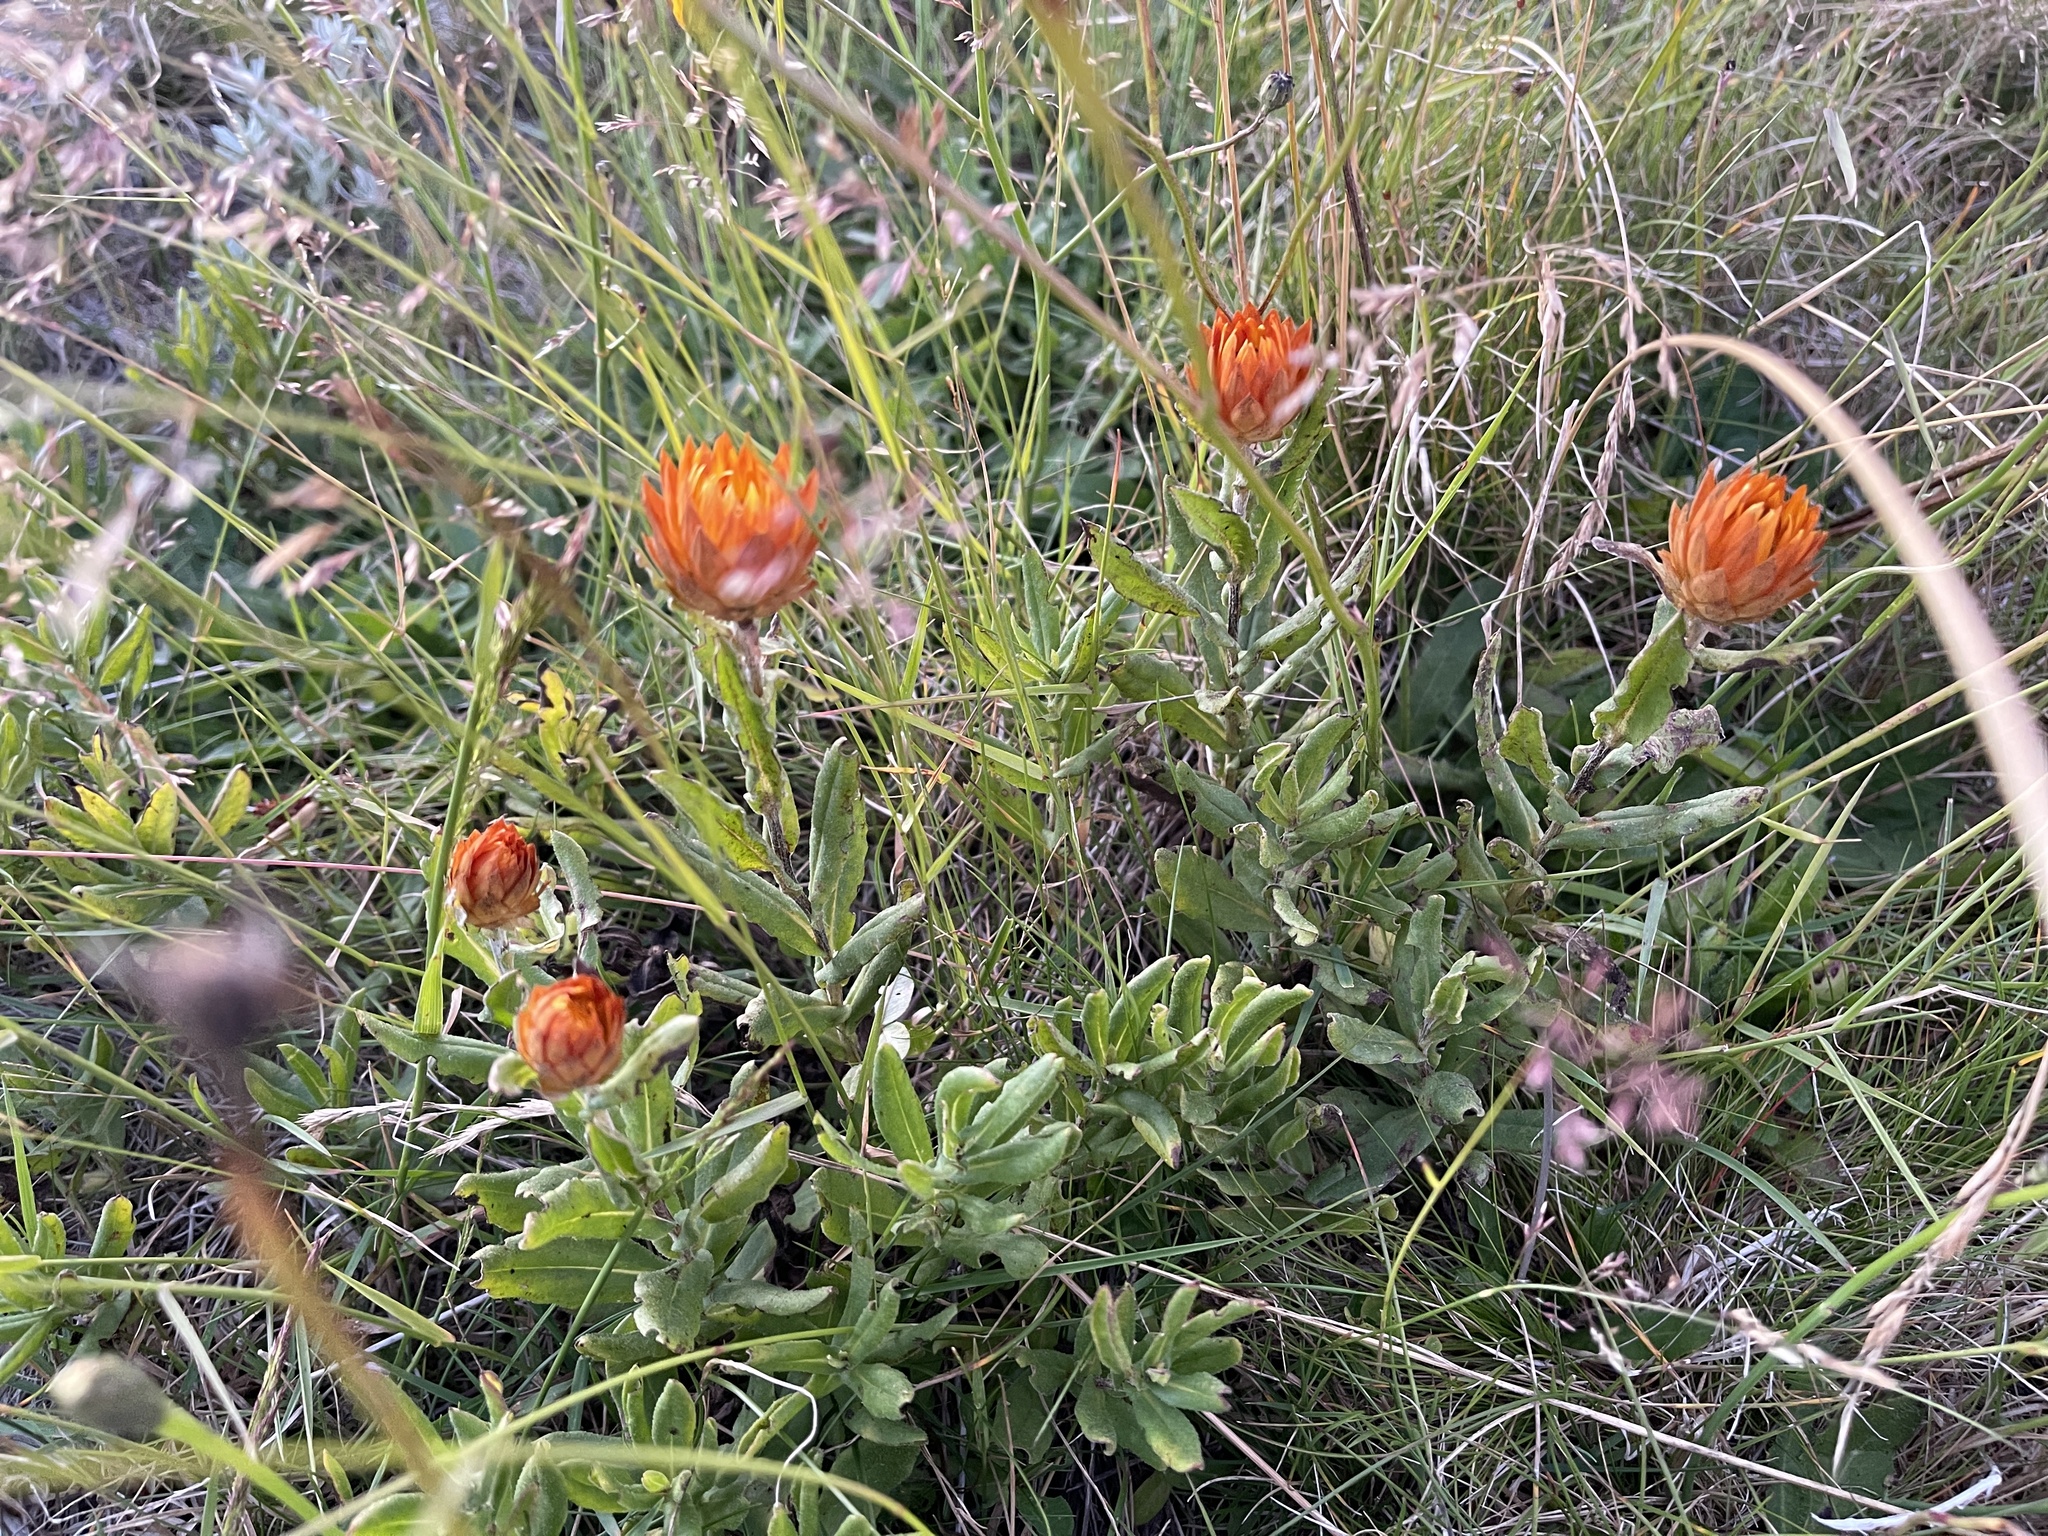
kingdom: Plantae
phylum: Tracheophyta
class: Magnoliopsida
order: Asterales
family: Asteraceae
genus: Xerochrysum
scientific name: Xerochrysum subundulatum
